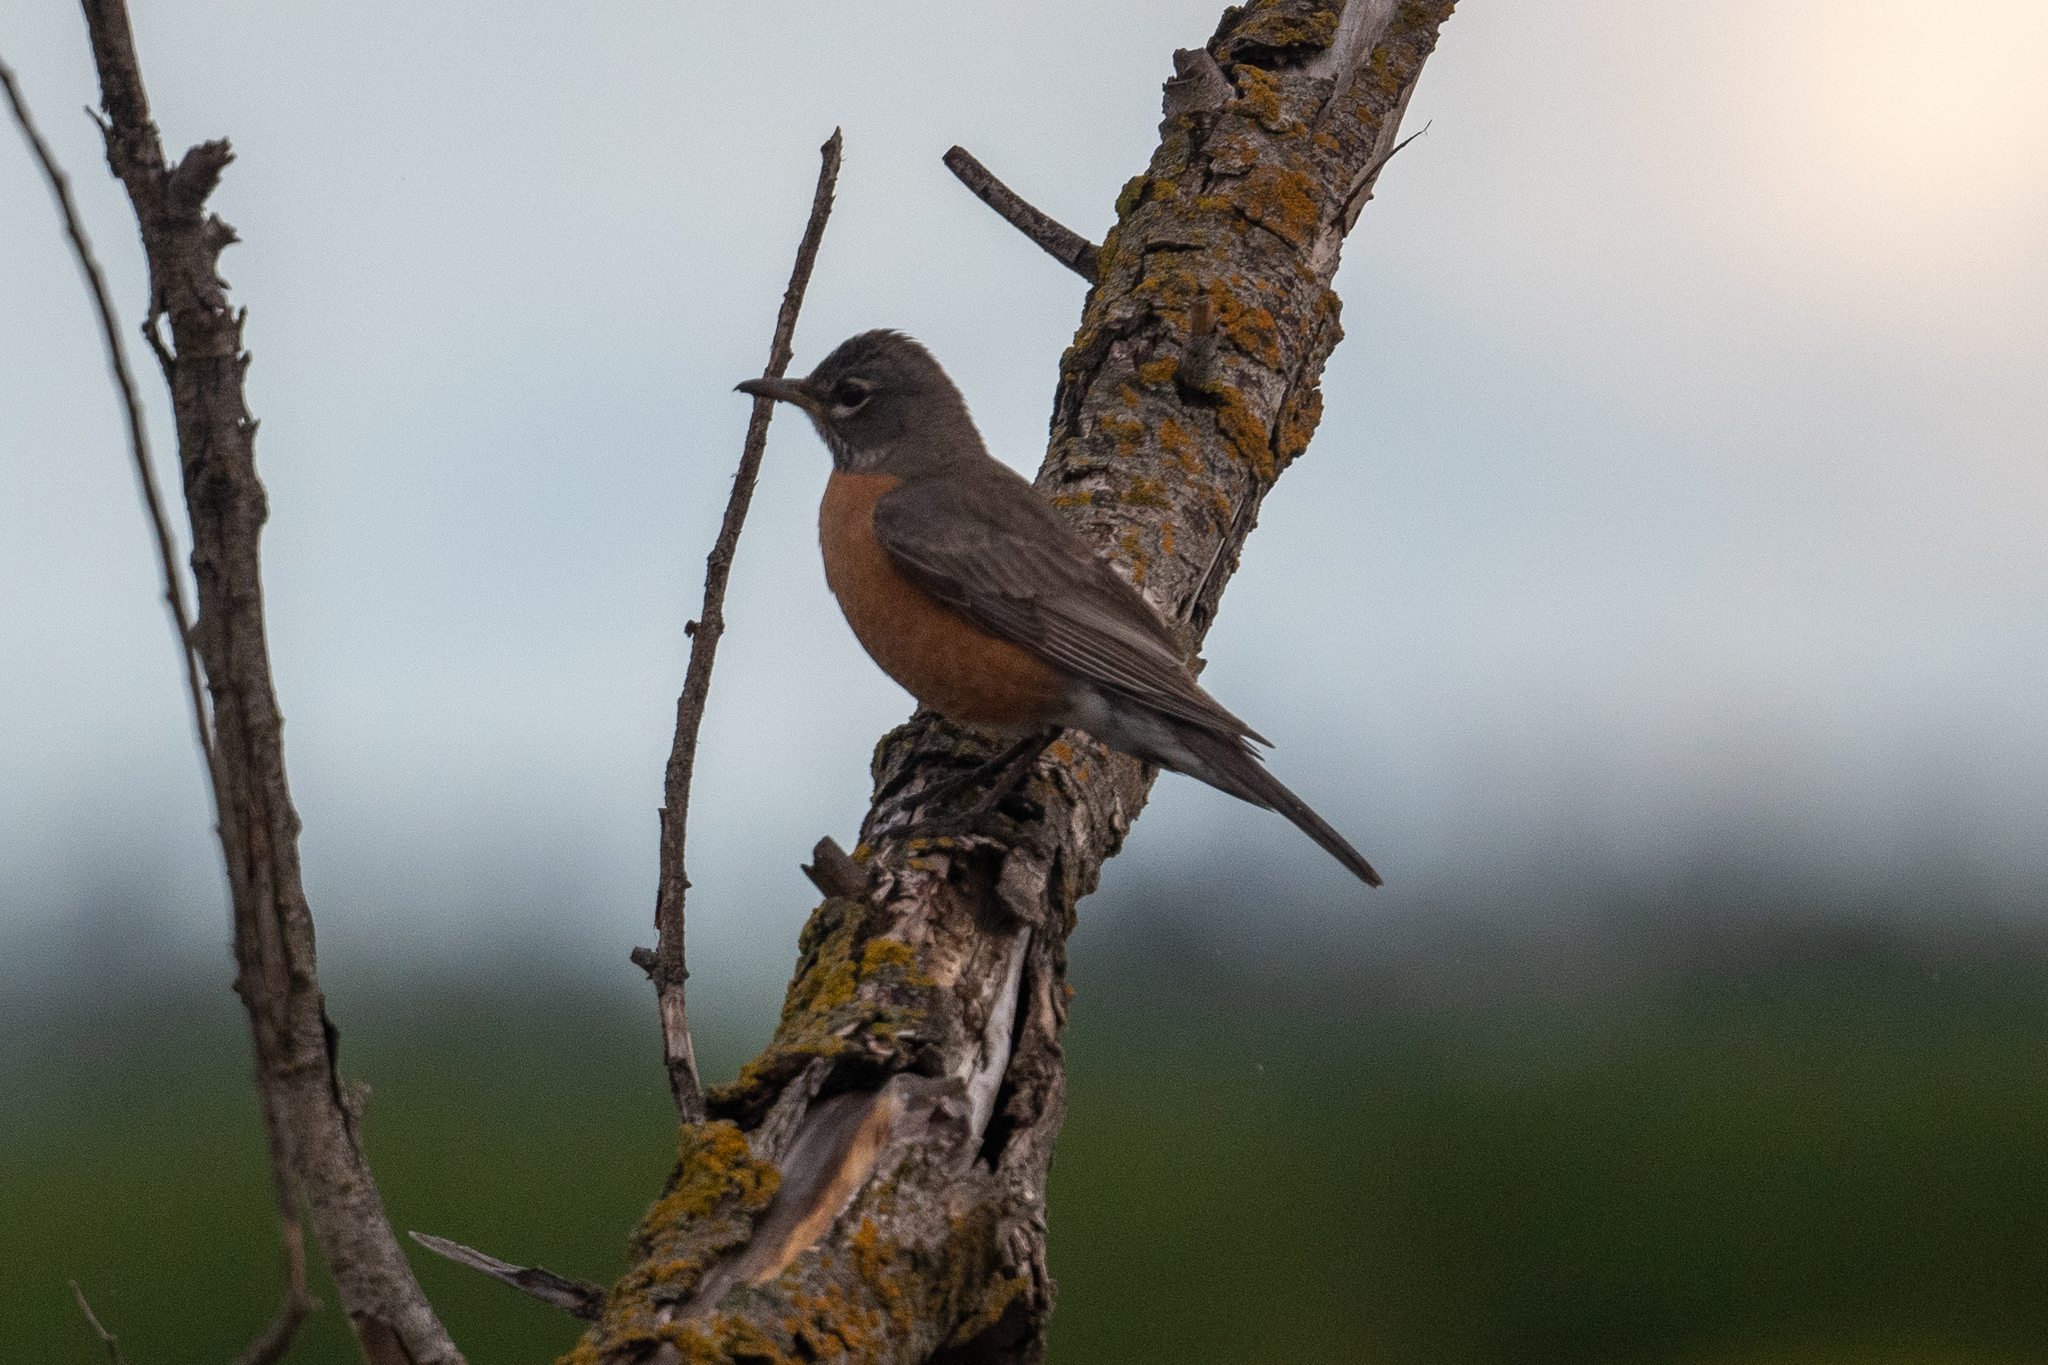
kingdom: Animalia
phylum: Chordata
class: Aves
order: Passeriformes
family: Turdidae
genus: Turdus
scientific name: Turdus migratorius
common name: American robin
